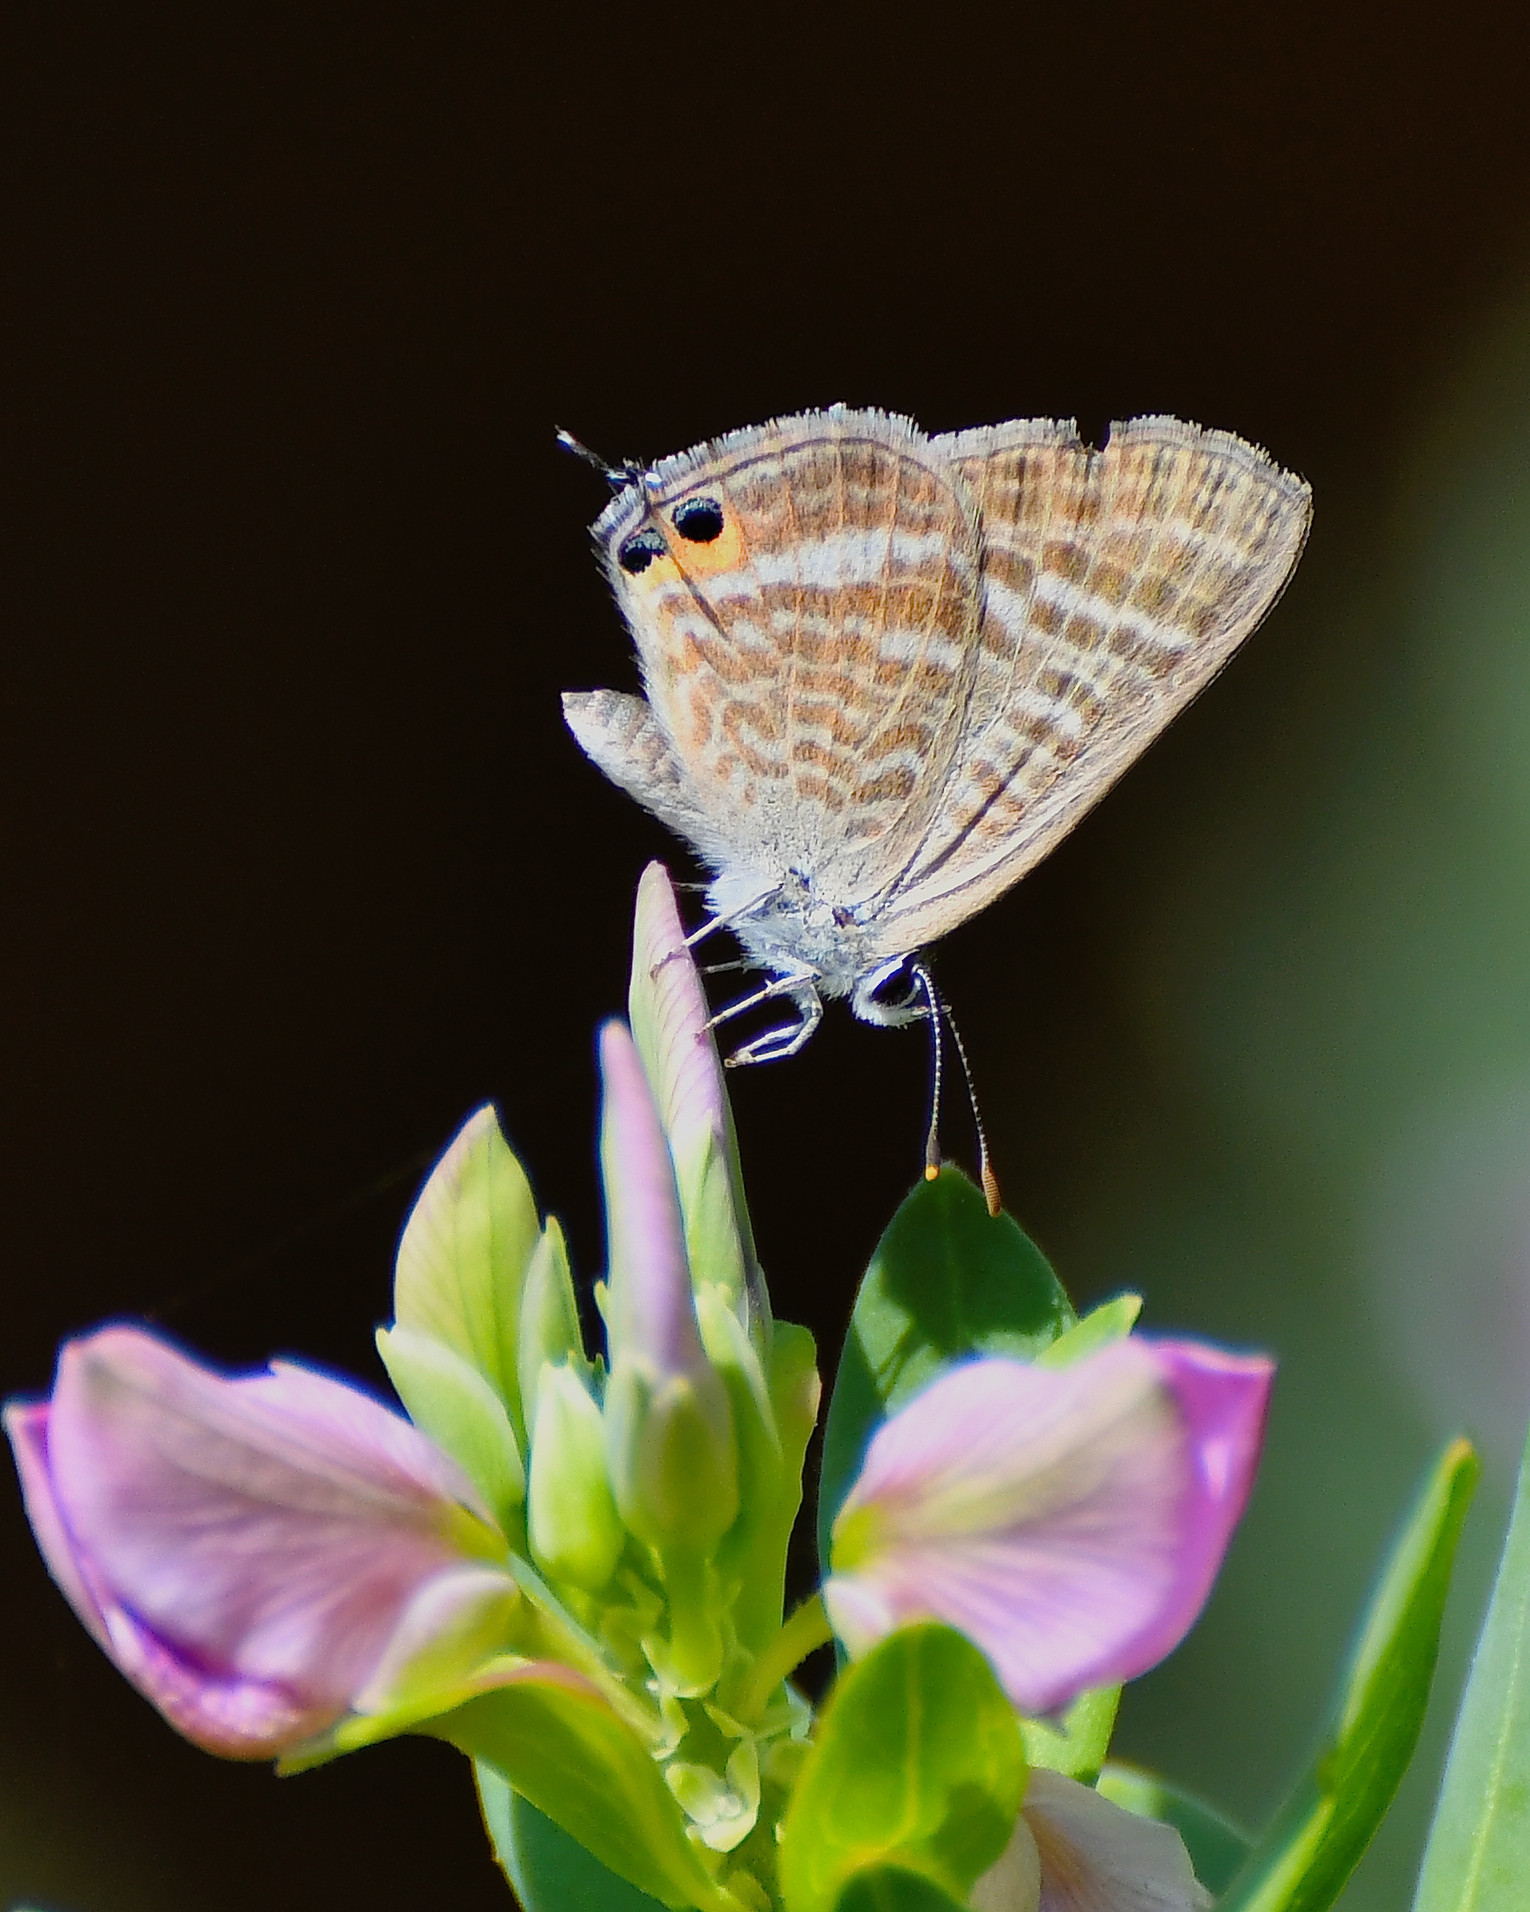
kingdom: Animalia
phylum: Arthropoda
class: Insecta
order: Lepidoptera
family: Lycaenidae
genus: Lampides
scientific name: Lampides boeticus
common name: Long-tailed blue
